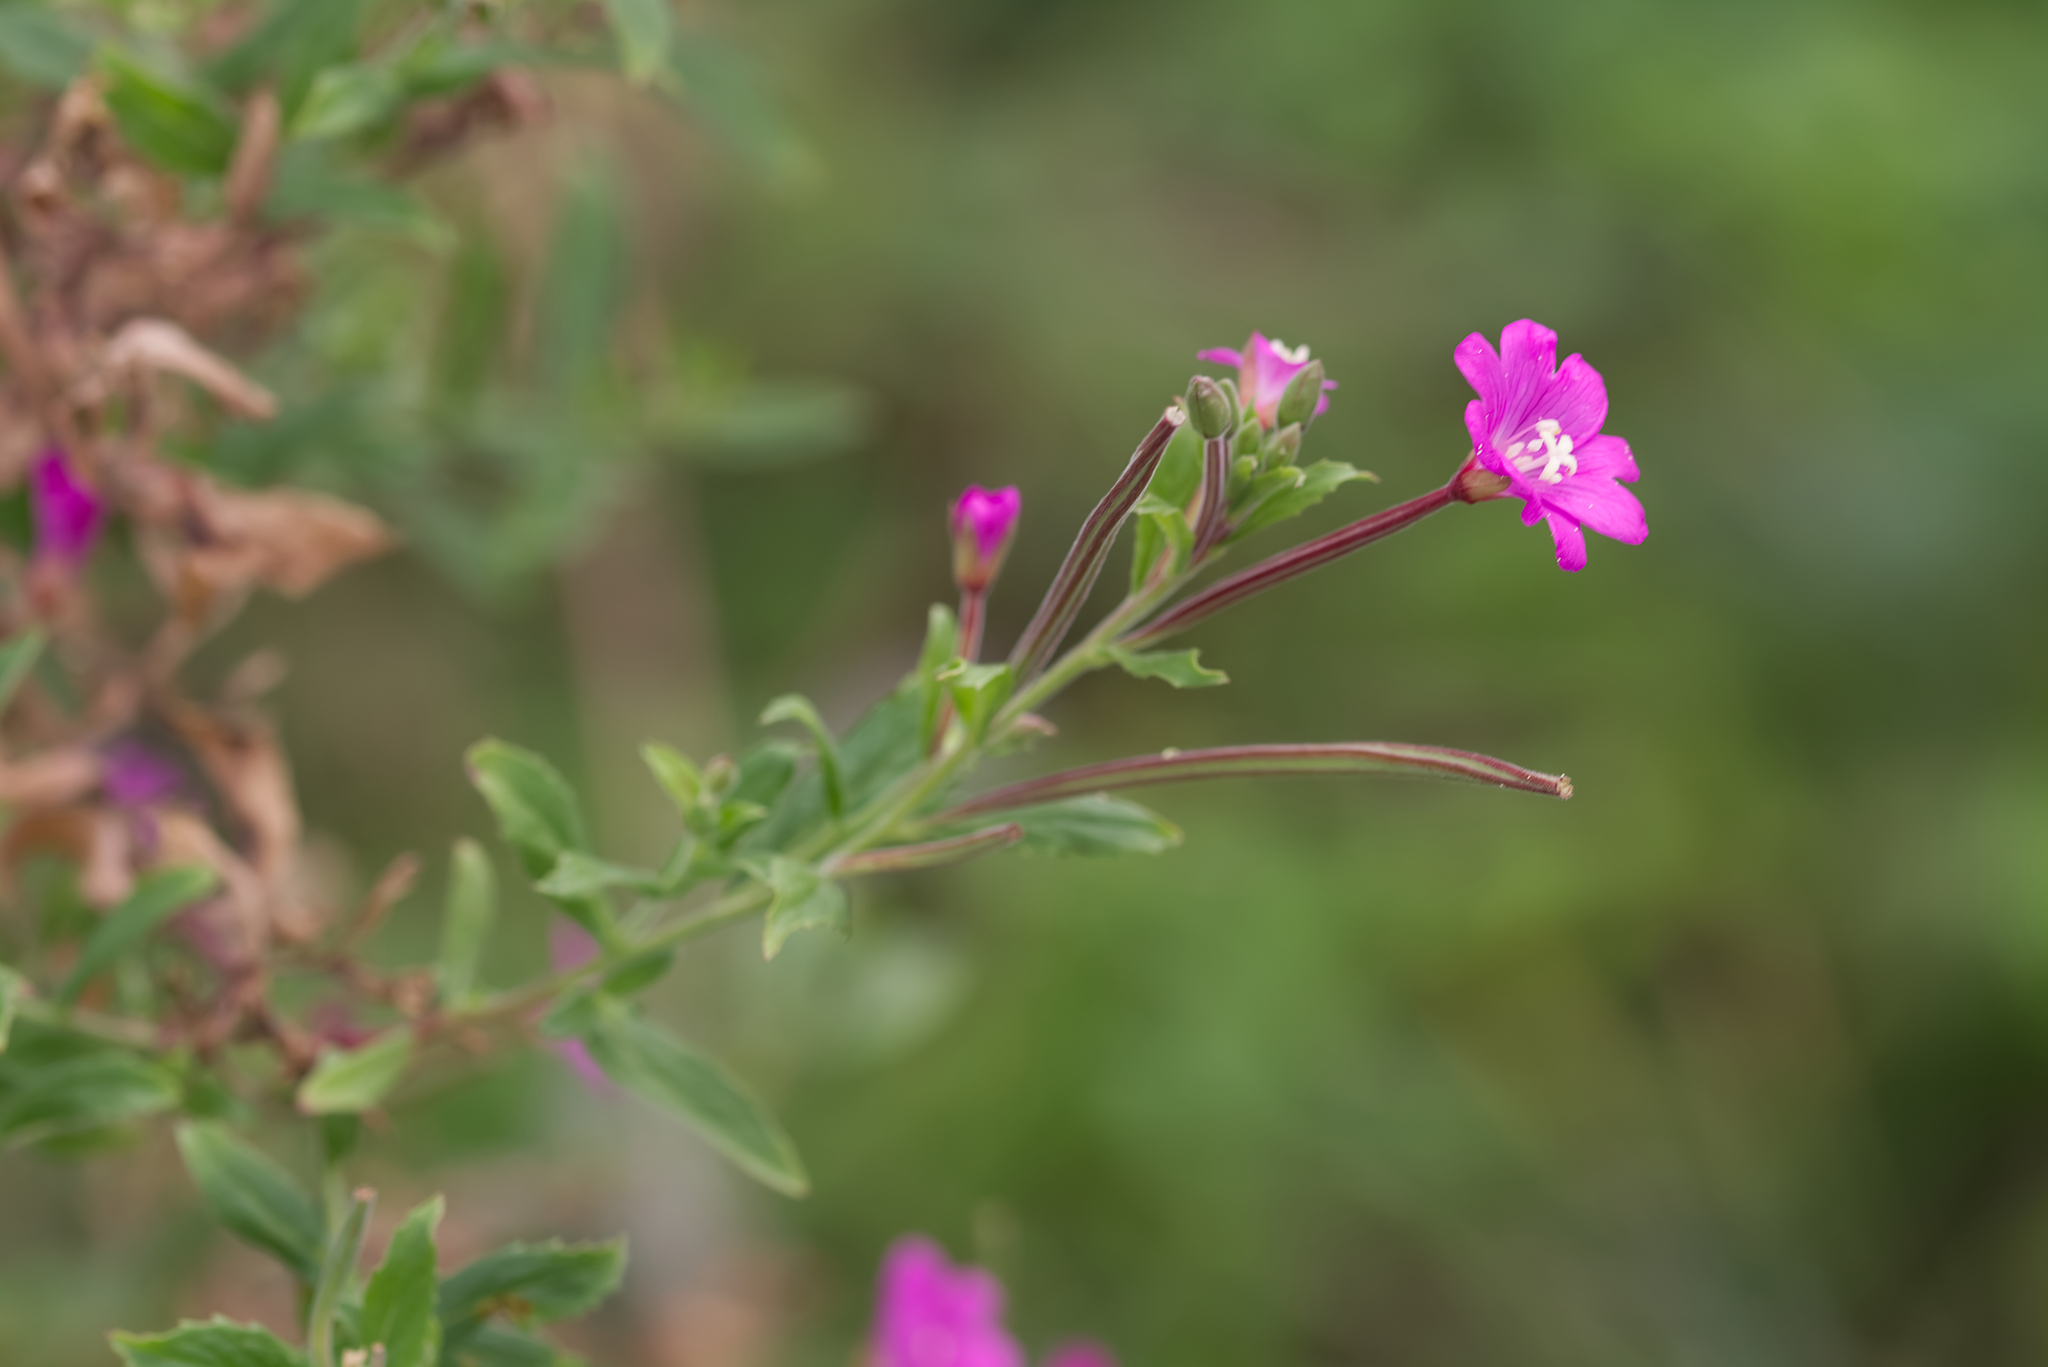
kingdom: Plantae
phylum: Tracheophyta
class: Magnoliopsida
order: Myrtales
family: Onagraceae
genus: Epilobium
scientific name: Epilobium hirsutum
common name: Great willowherb
